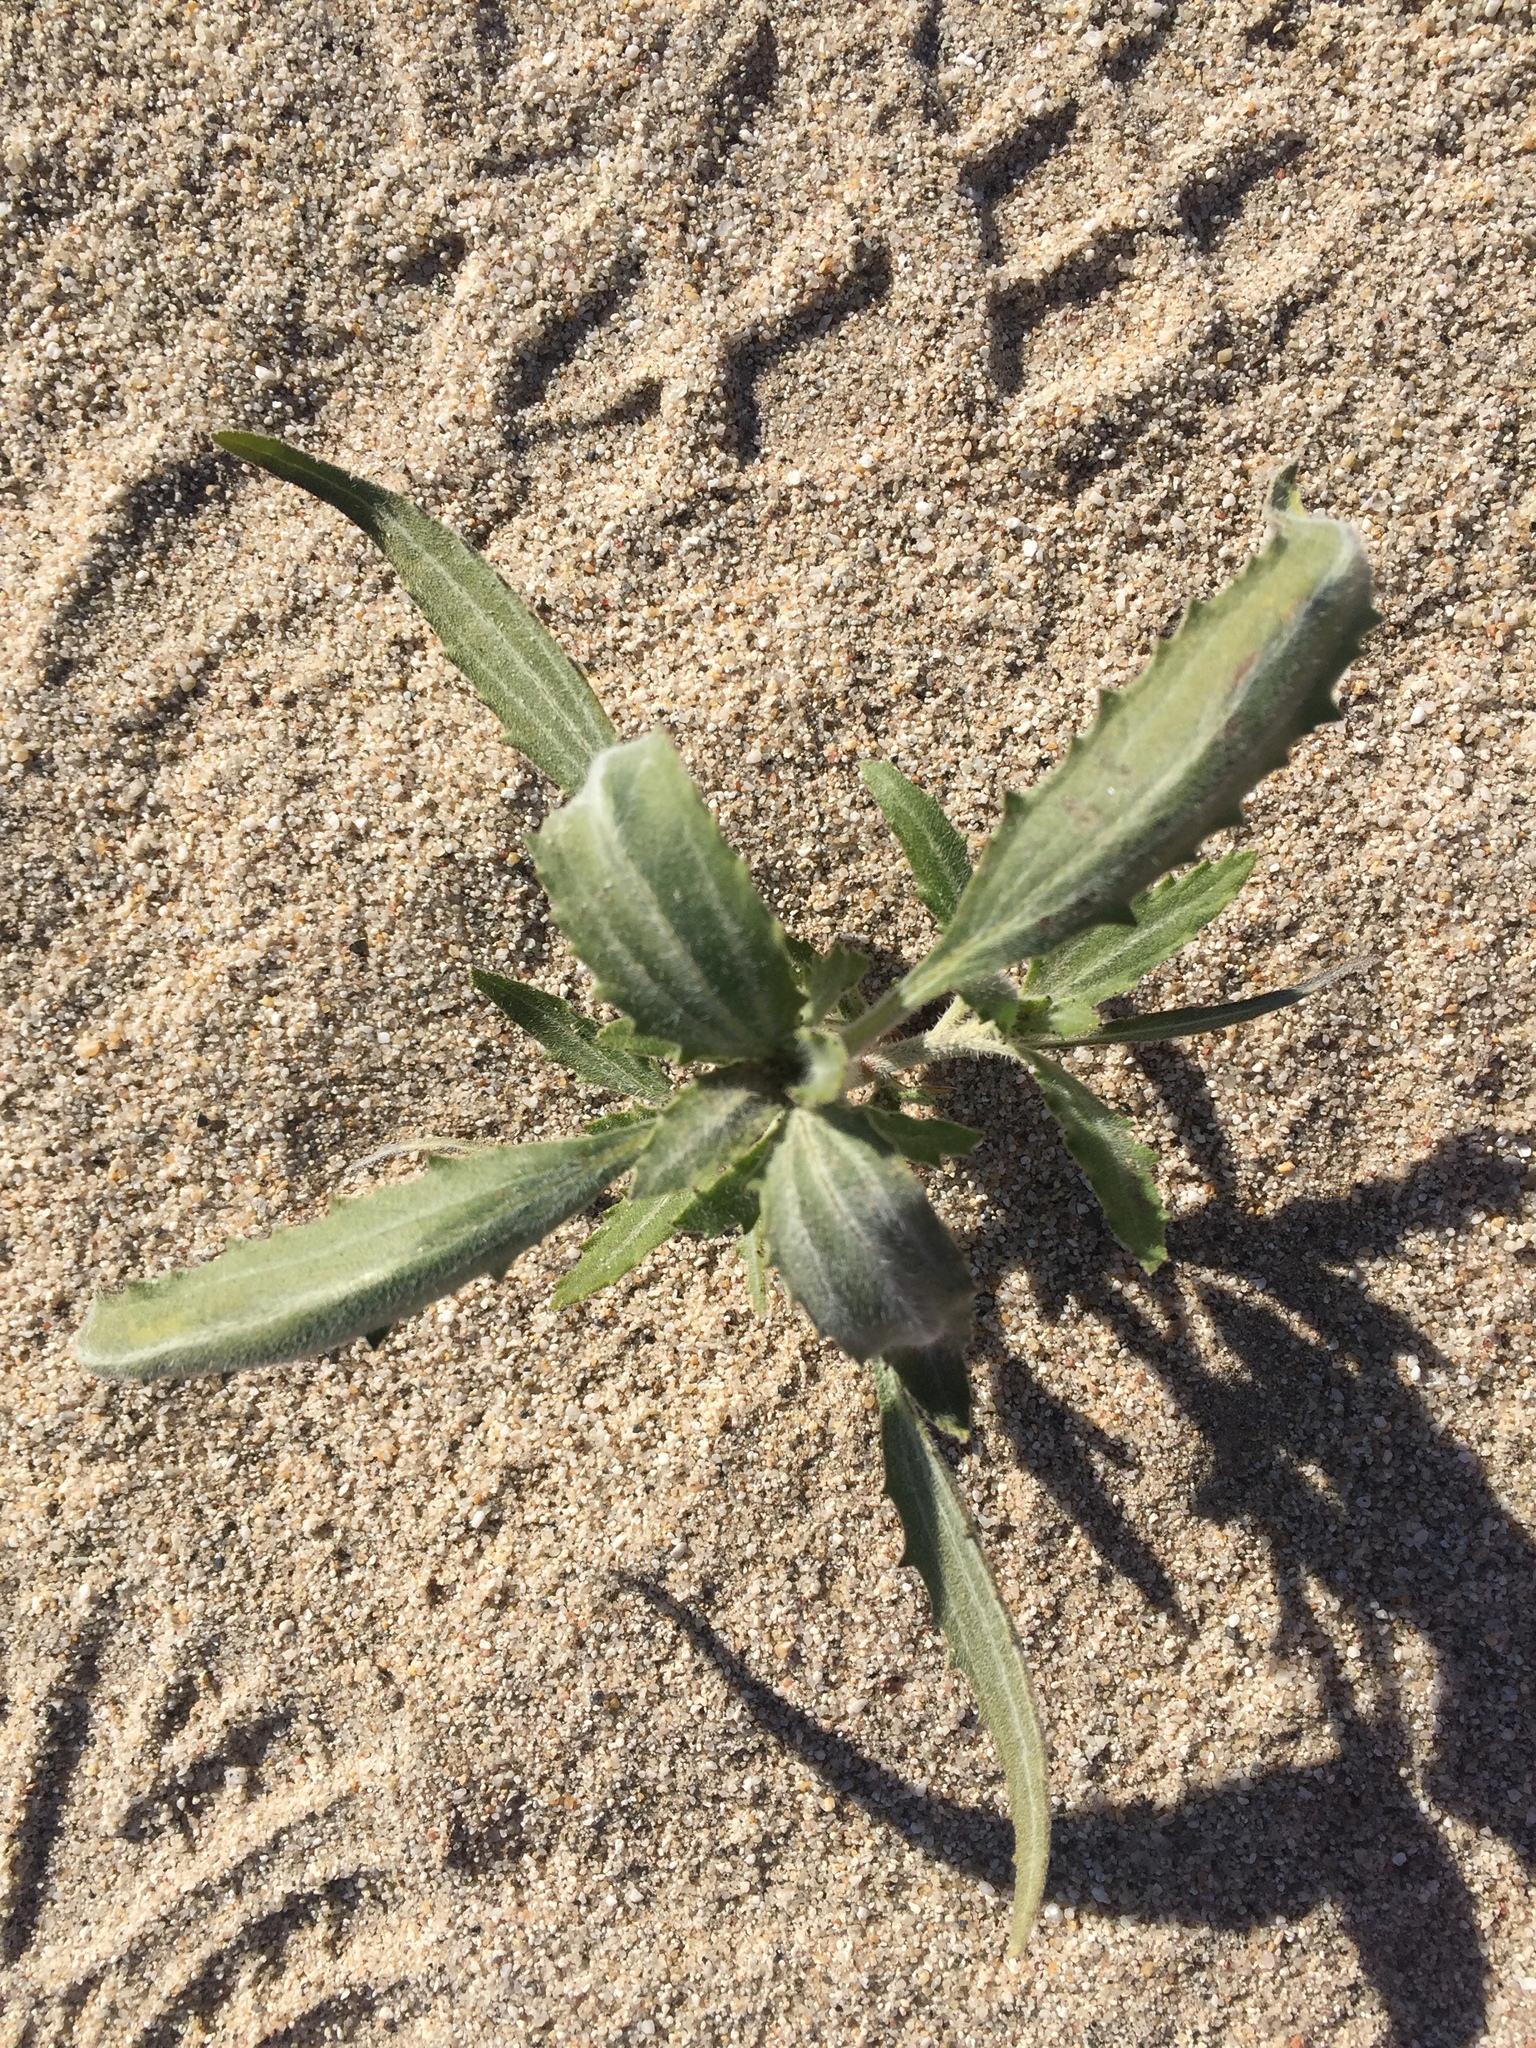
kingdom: Plantae
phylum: Tracheophyta
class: Magnoliopsida
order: Asterales
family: Asteraceae
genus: Dicoria
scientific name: Dicoria canescens
